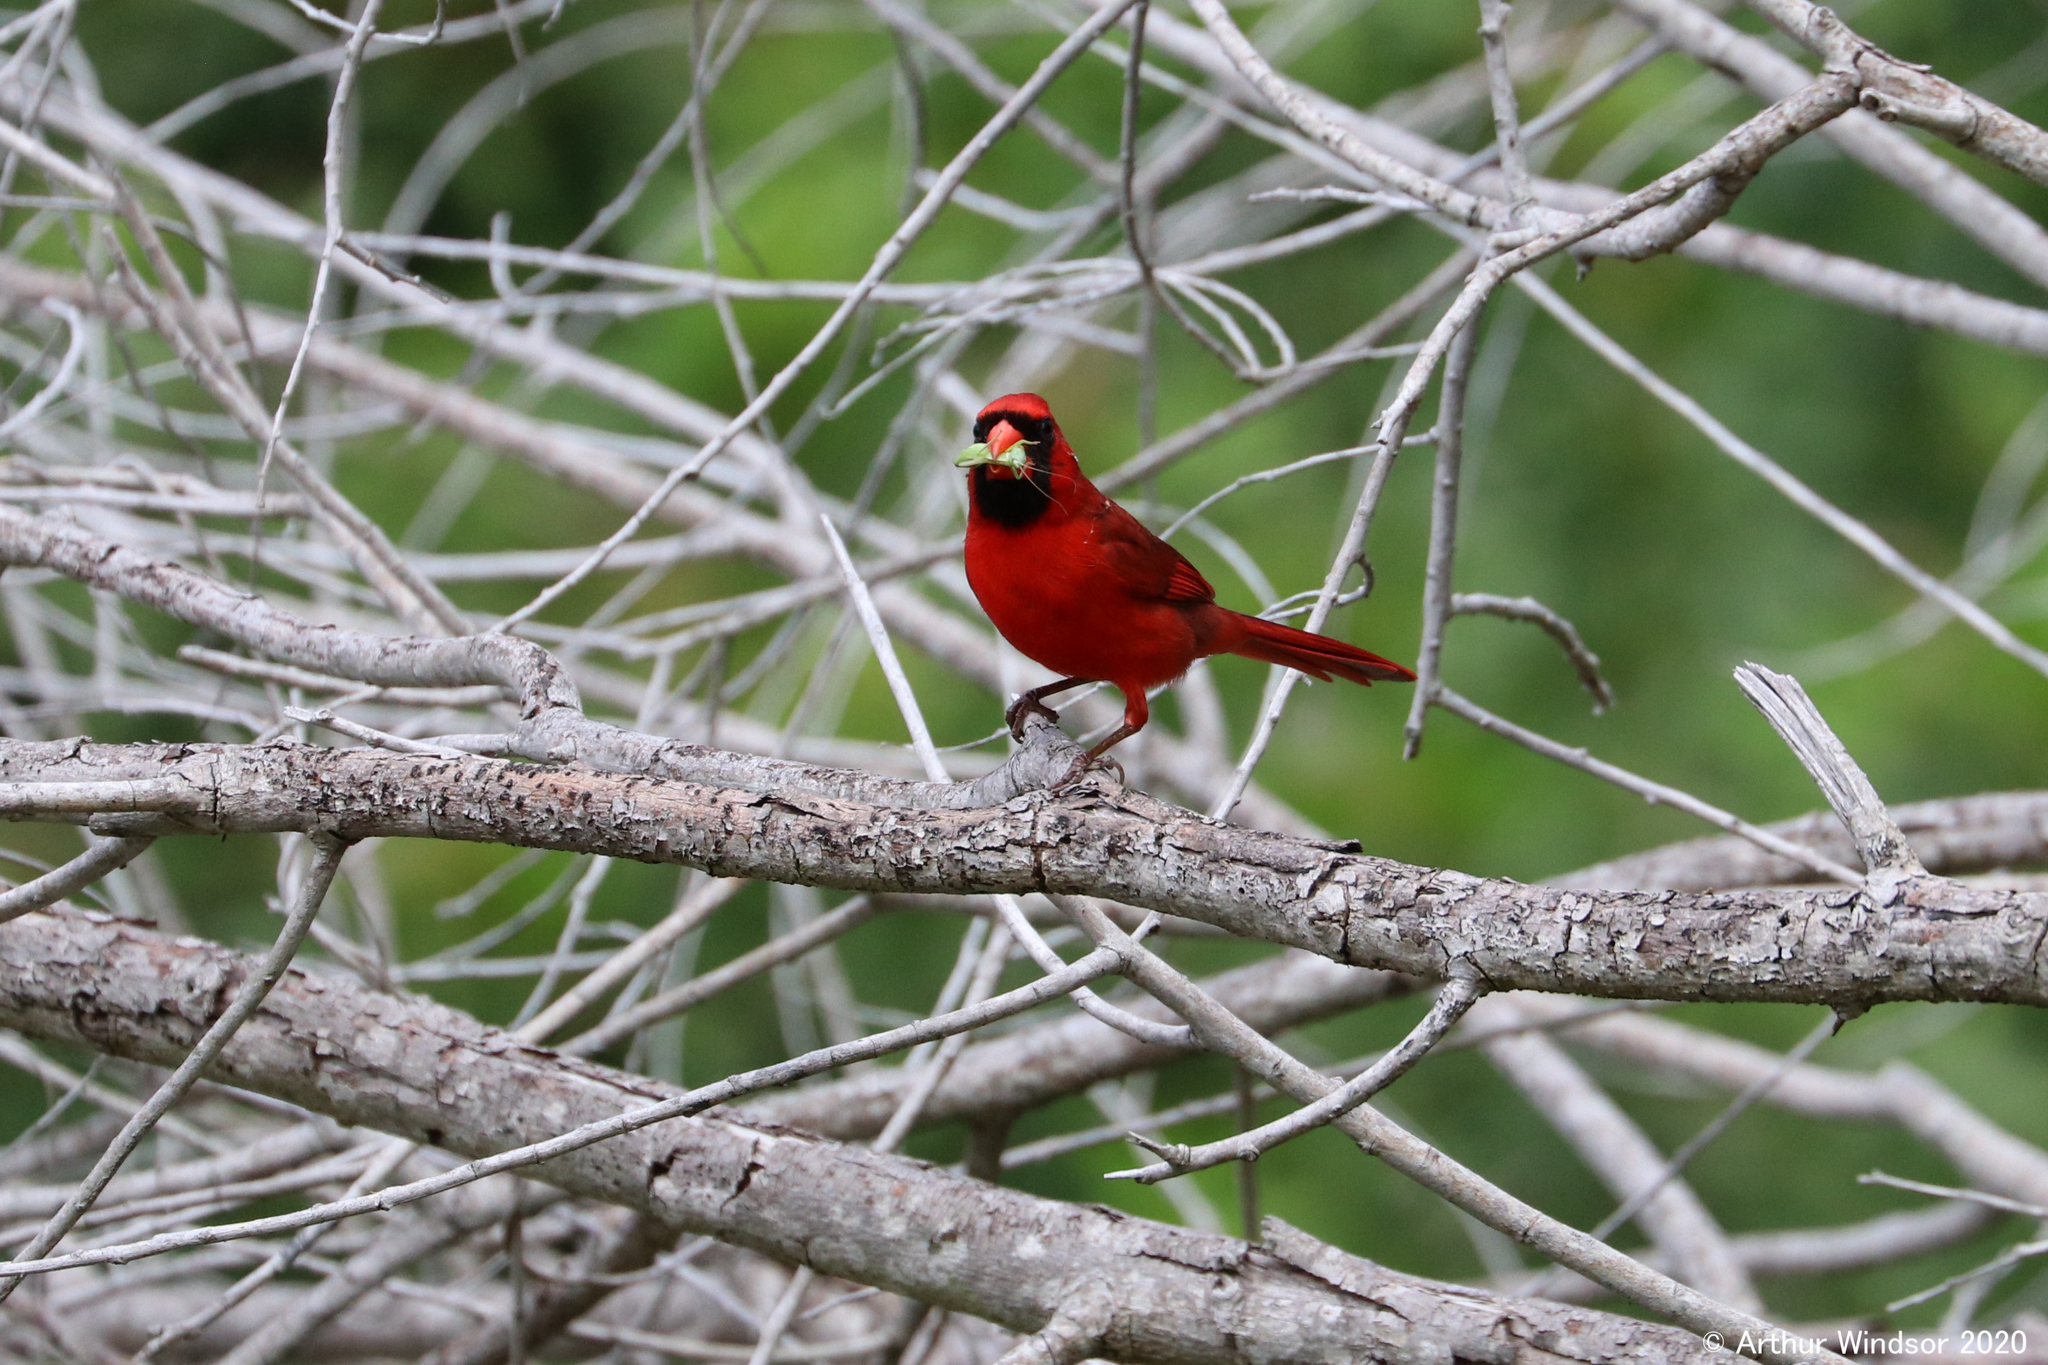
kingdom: Animalia
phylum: Chordata
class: Aves
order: Passeriformes
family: Cardinalidae
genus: Cardinalis
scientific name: Cardinalis cardinalis
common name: Northern cardinal
